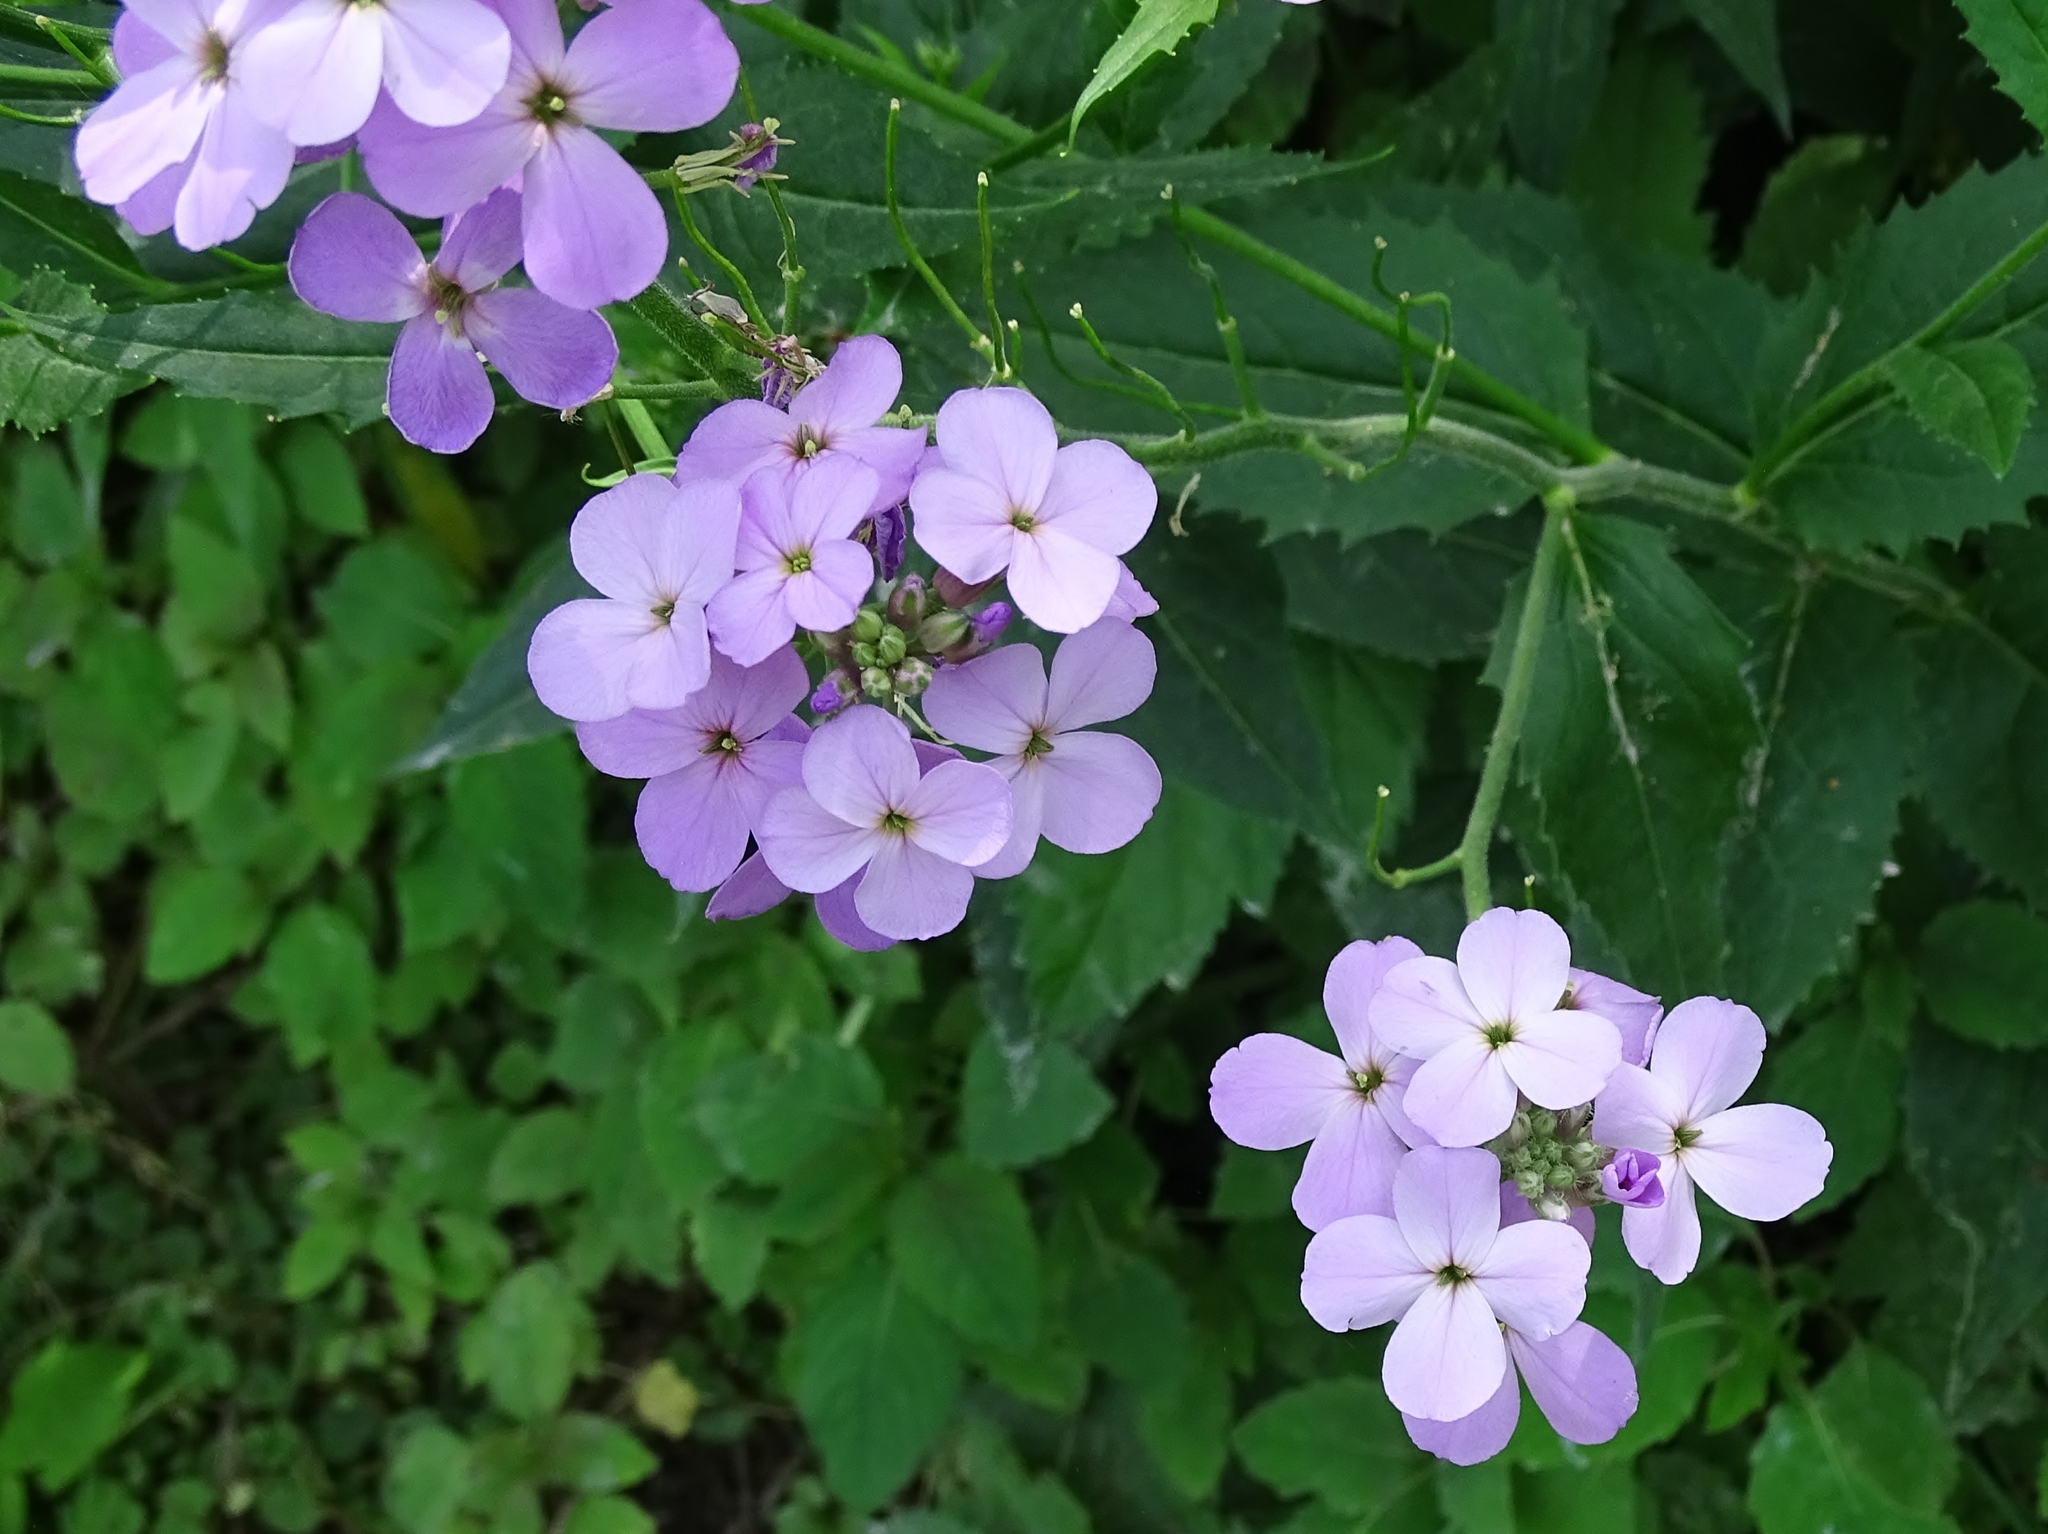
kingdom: Plantae
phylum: Tracheophyta
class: Magnoliopsida
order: Brassicales
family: Brassicaceae
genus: Hesperis
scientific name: Hesperis matronalis
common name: Dame's-violet
